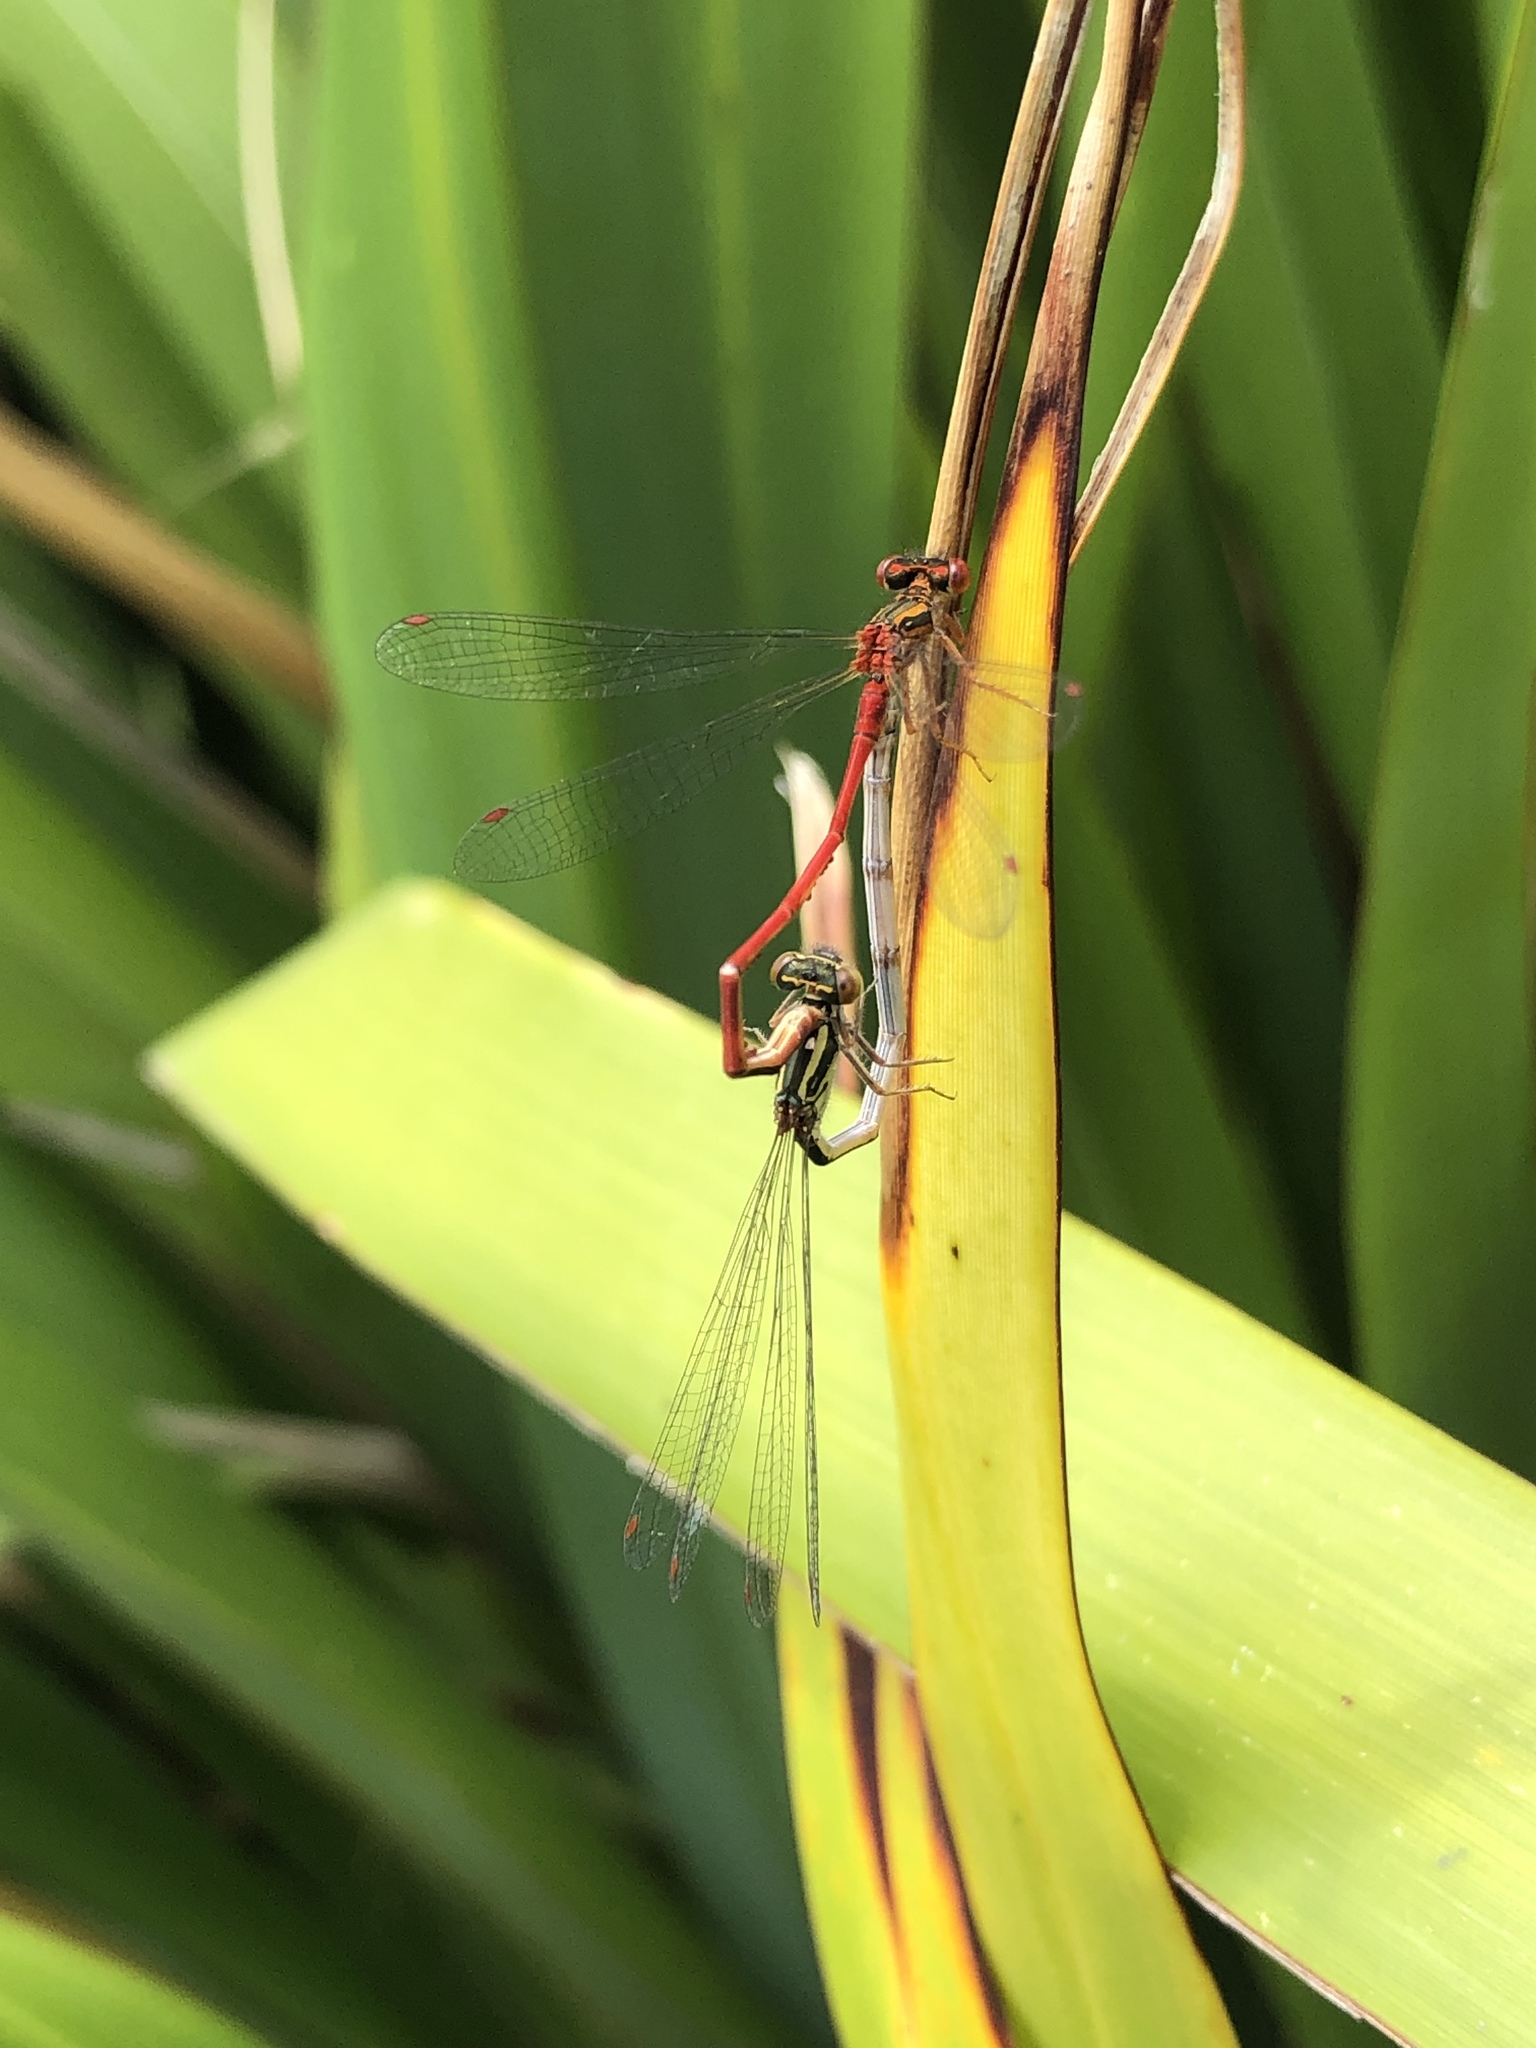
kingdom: Animalia
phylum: Arthropoda
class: Insecta
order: Odonata
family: Coenagrionidae
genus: Xanthocnemis
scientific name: Xanthocnemis zealandica
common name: Common redcoat damselfly
